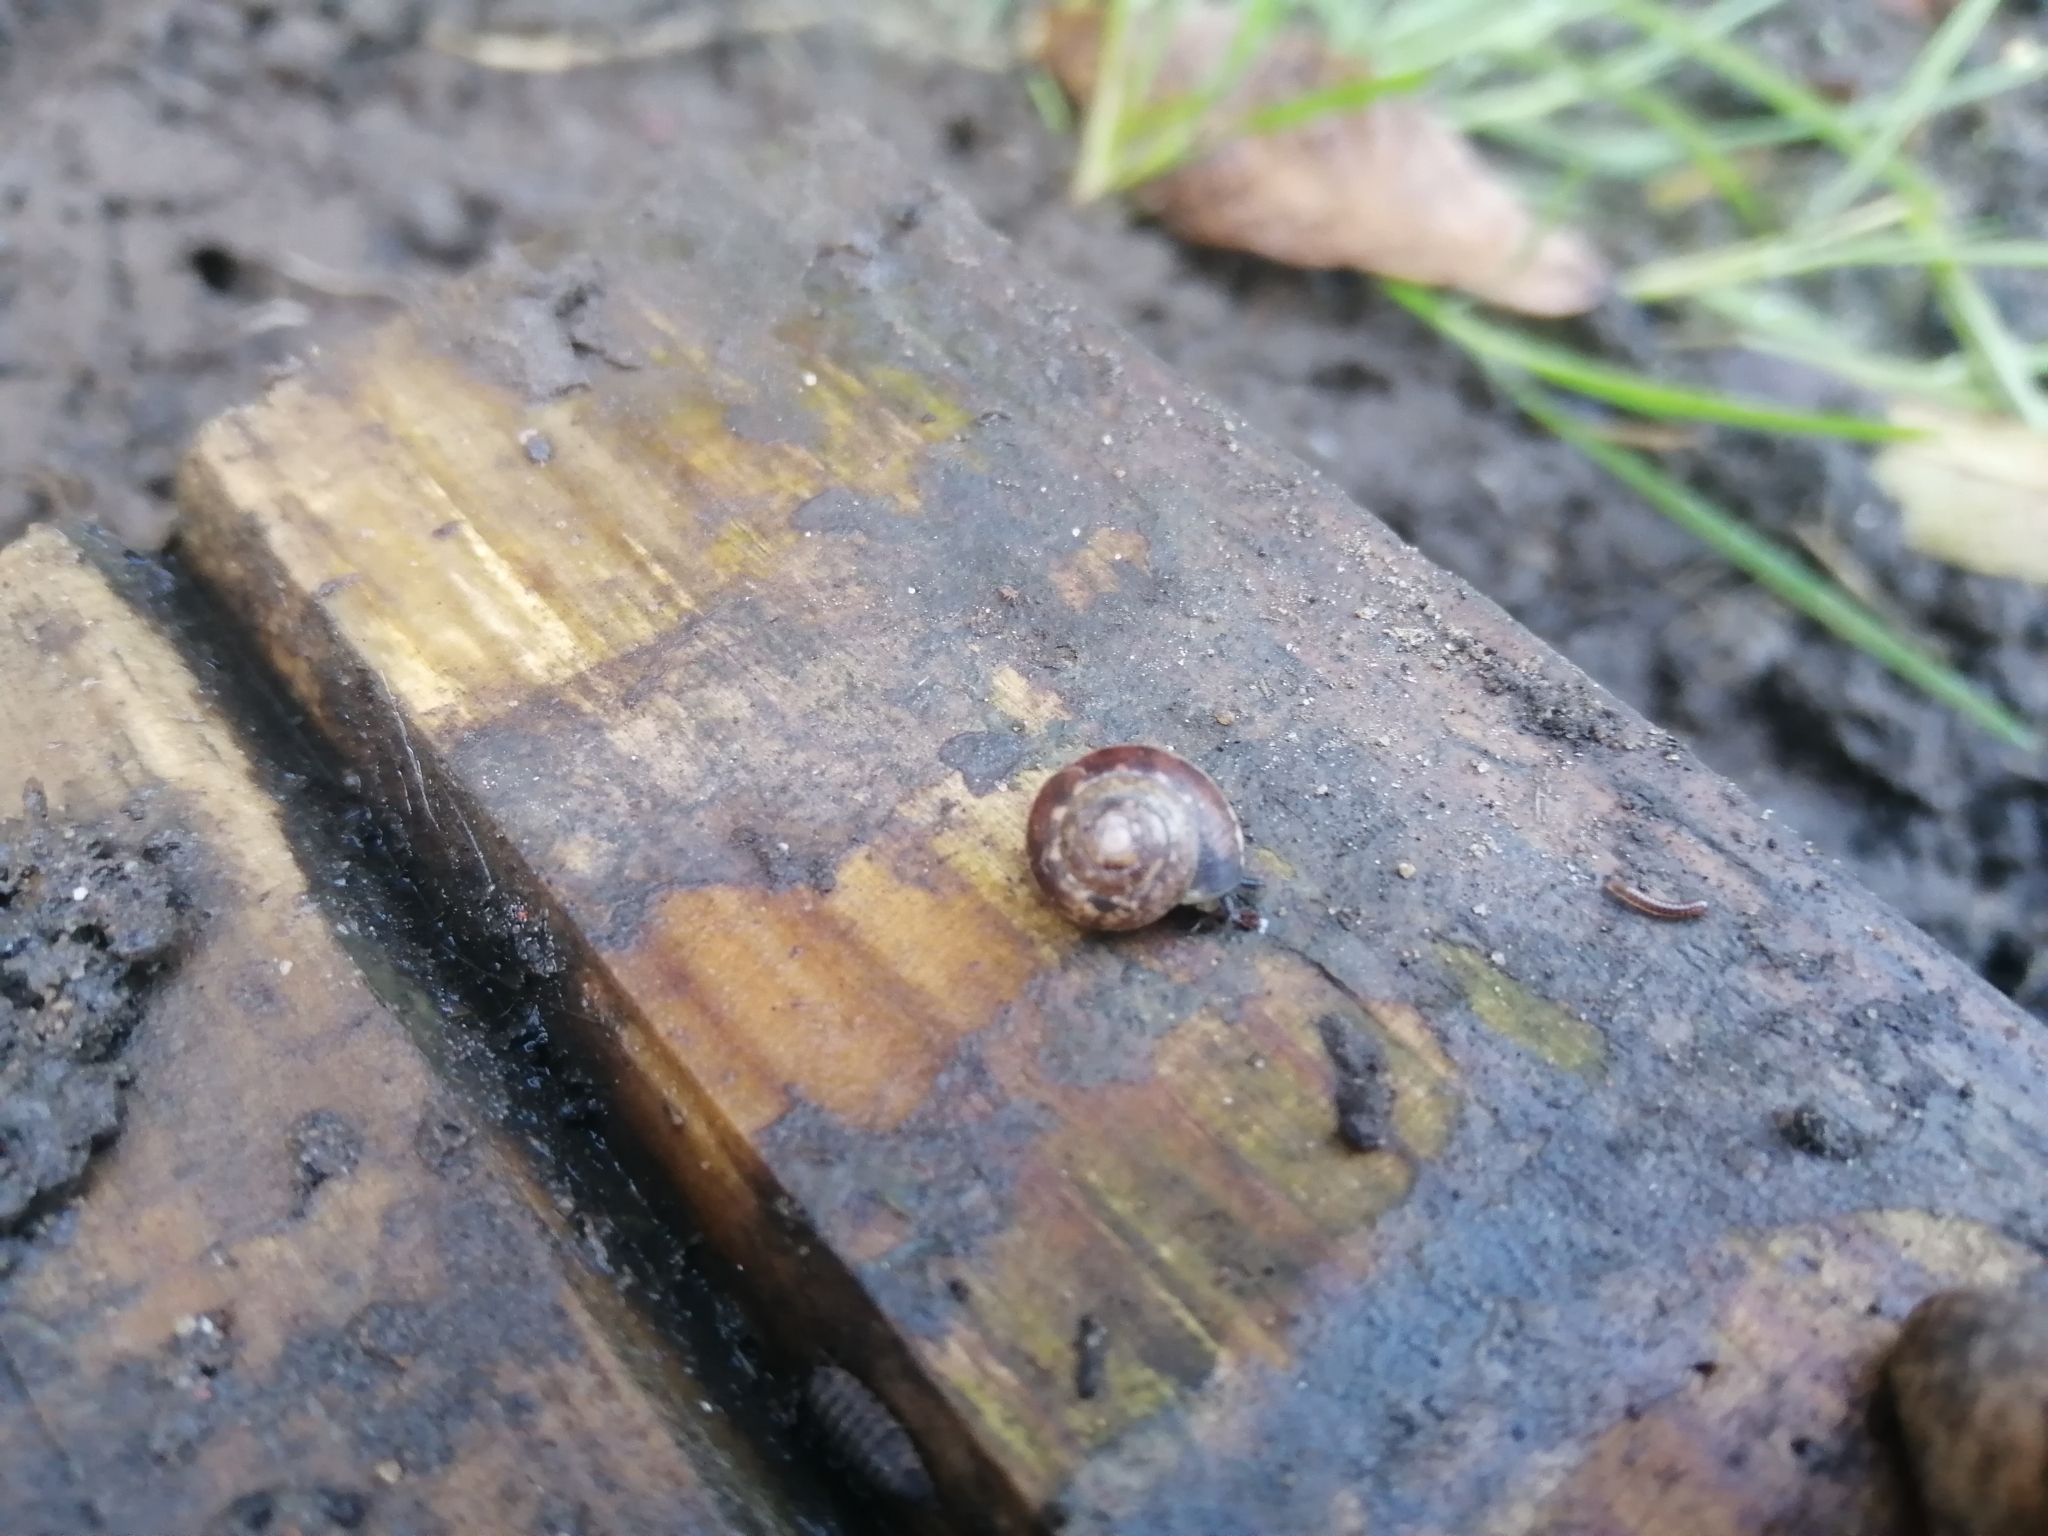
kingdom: Animalia
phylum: Mollusca
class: Gastropoda
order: Stylommatophora
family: Hygromiidae
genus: Hygromia
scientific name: Hygromia cinctella
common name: Girdled snail
